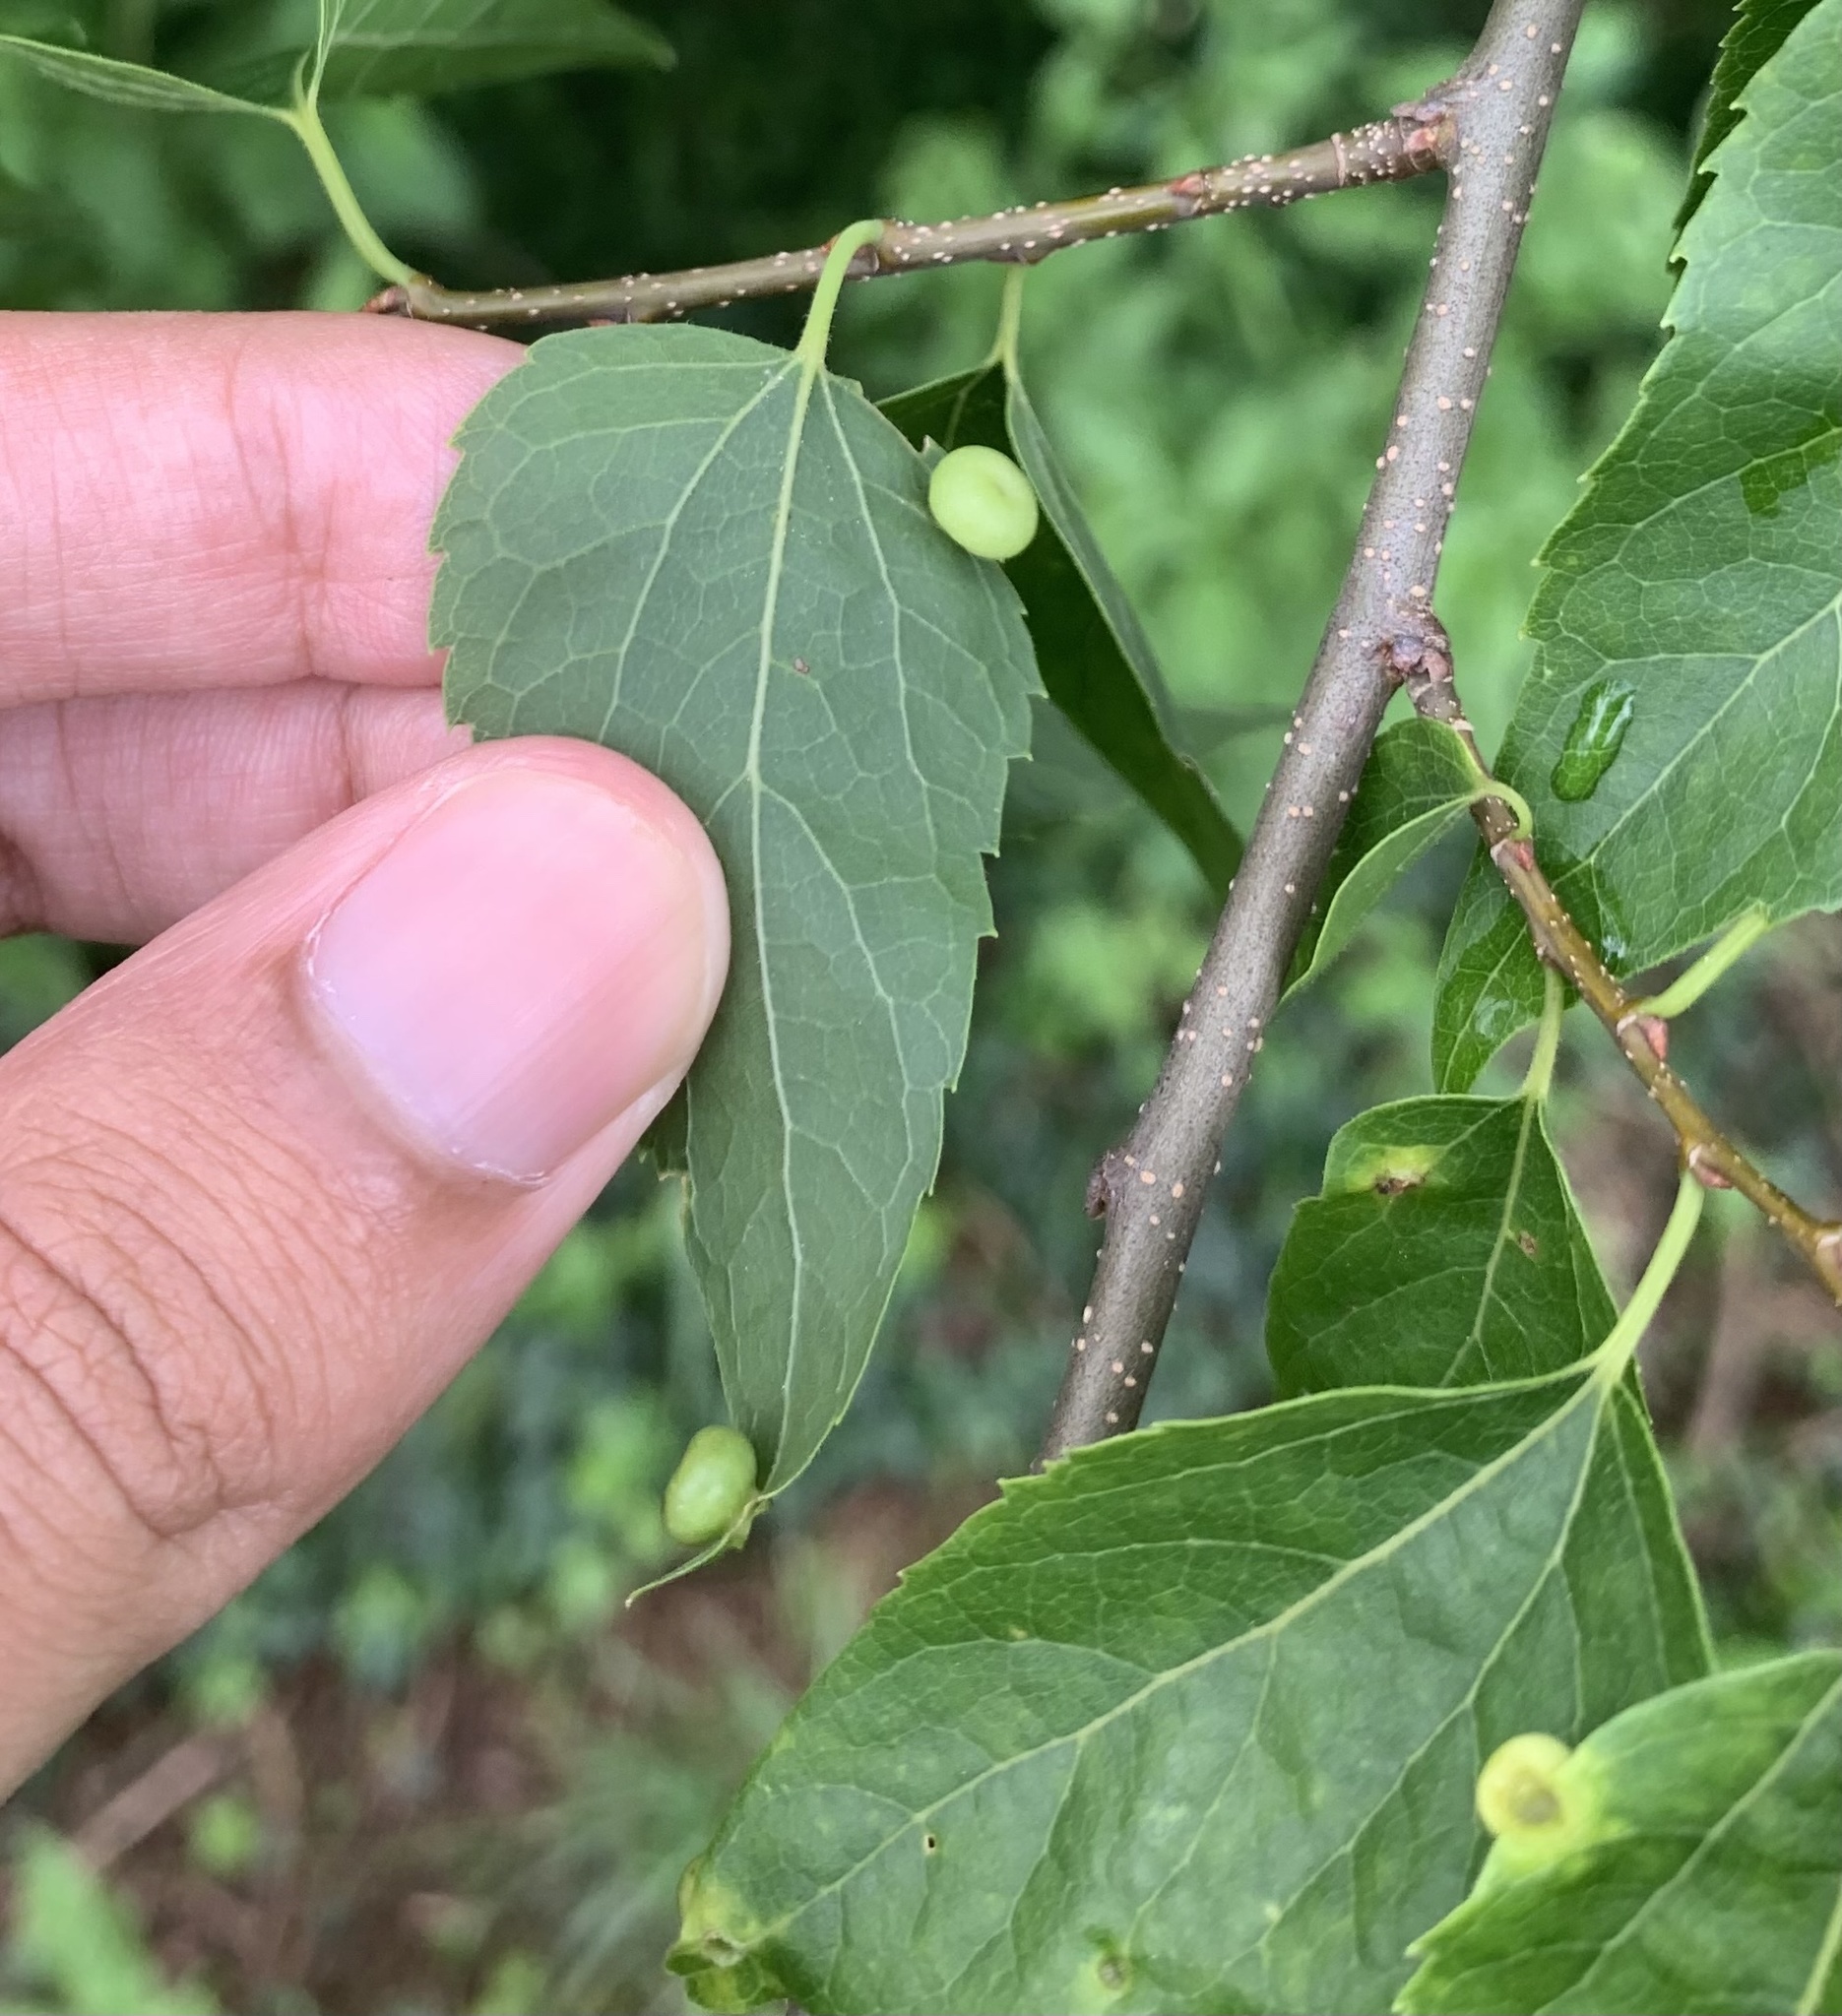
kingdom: Animalia
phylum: Arthropoda
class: Insecta
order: Hemiptera
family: Aphalaridae
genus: Pachypsylla
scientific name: Pachypsylla celtidismamma
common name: Hackberry nipplegall psyllid
